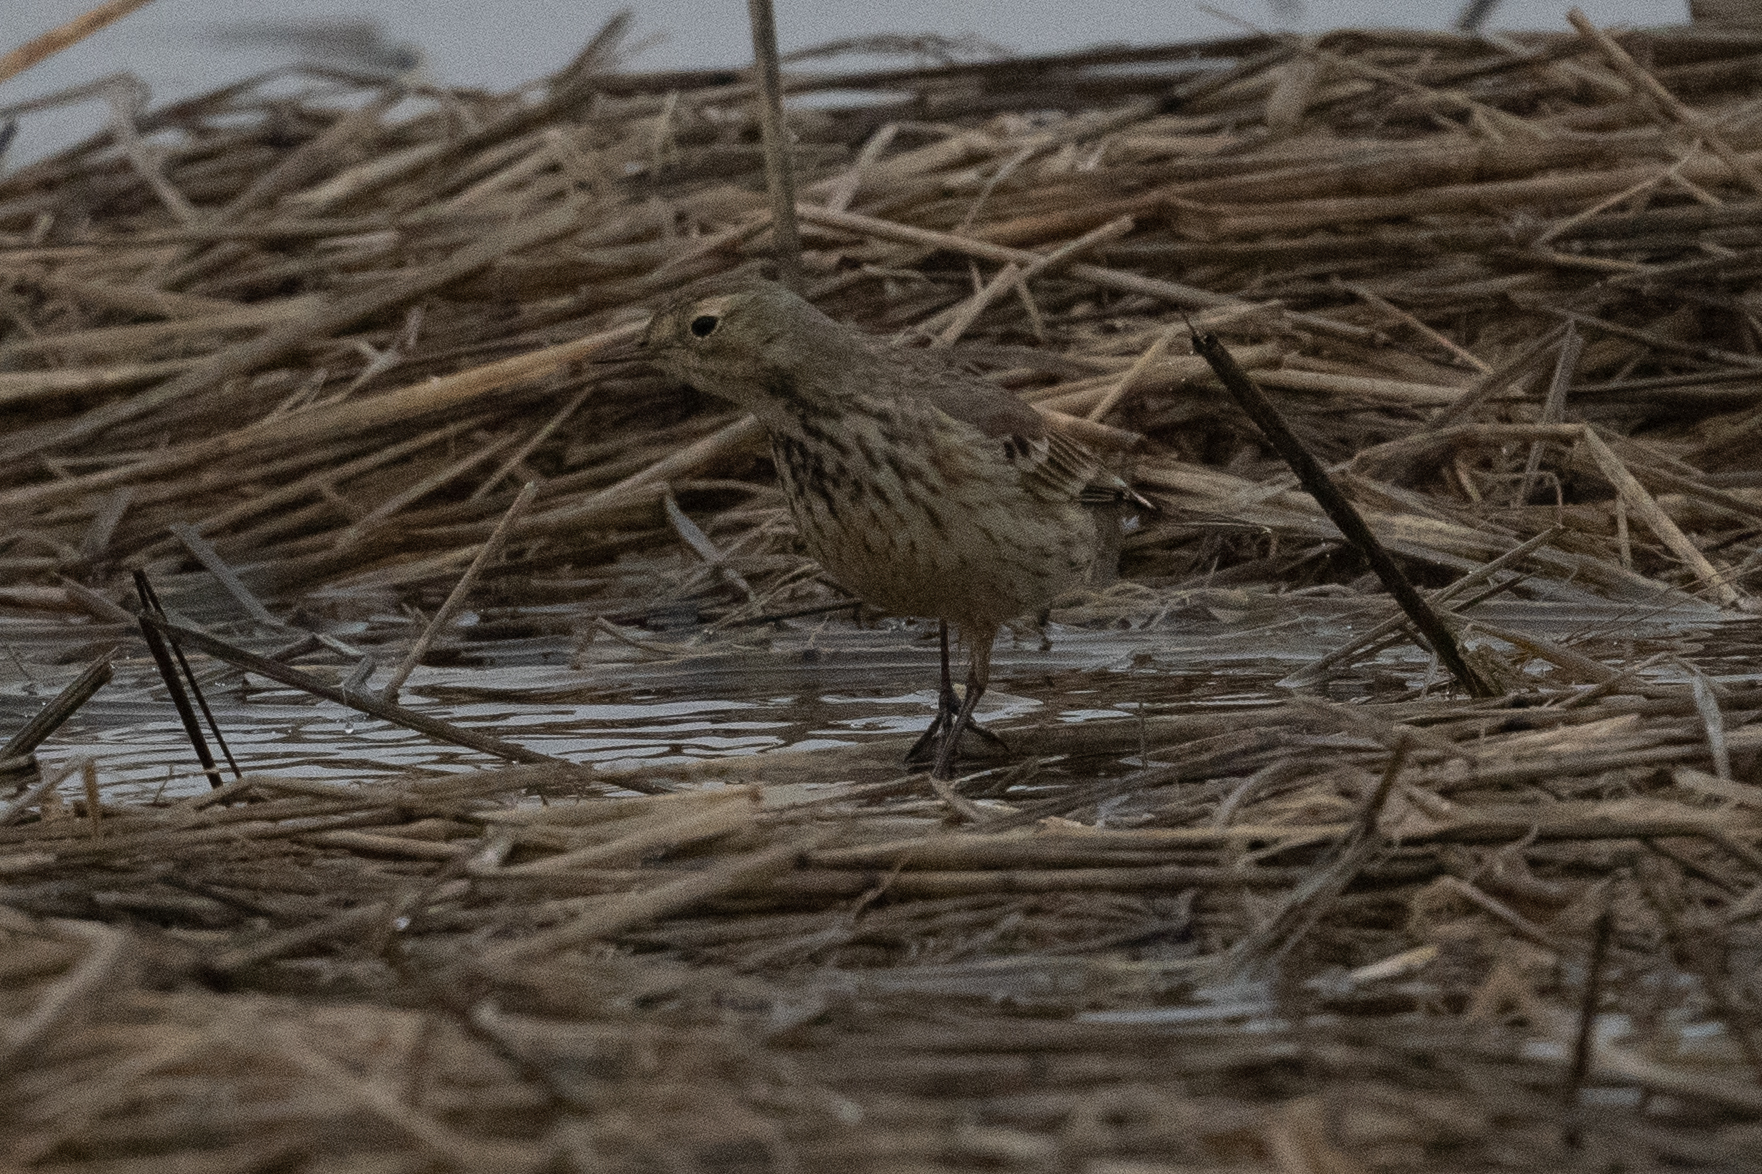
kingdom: Animalia
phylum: Chordata
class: Aves
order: Passeriformes
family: Motacillidae
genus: Anthus
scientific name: Anthus rubescens
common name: Buff-bellied pipit
